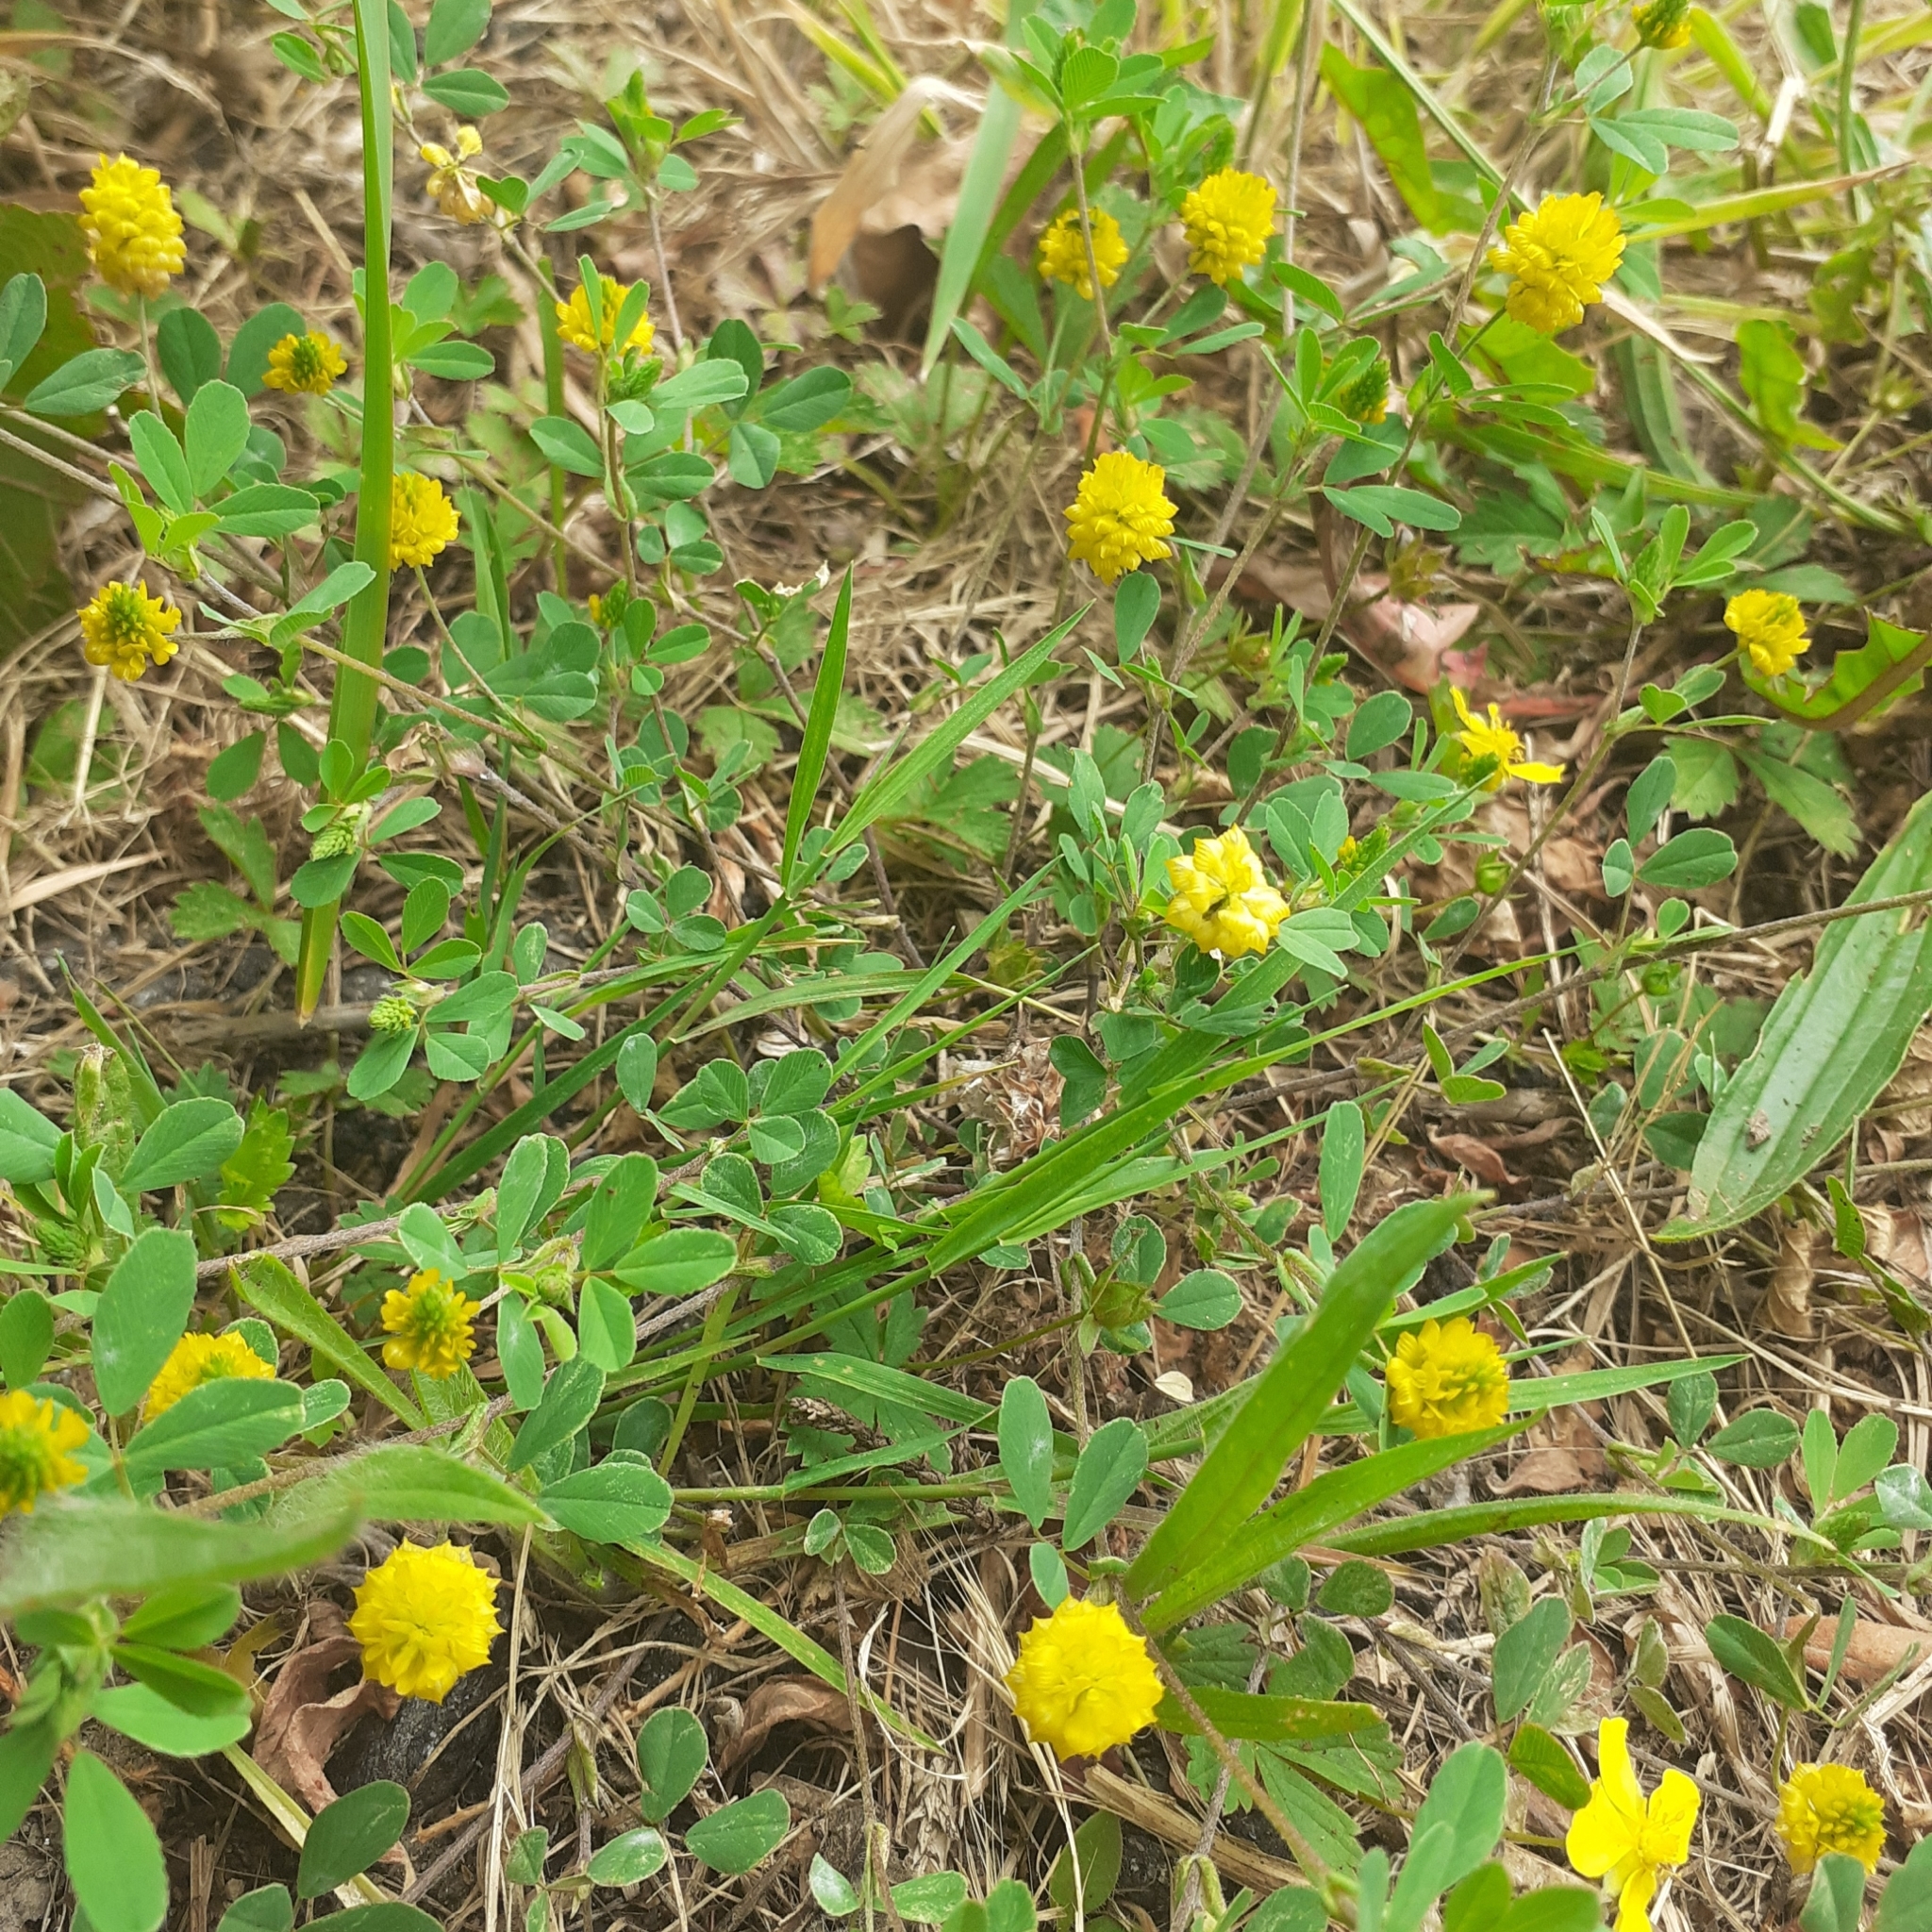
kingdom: Plantae
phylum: Tracheophyta
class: Magnoliopsida
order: Fabales
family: Fabaceae
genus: Trifolium
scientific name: Trifolium campestre
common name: Field clover
